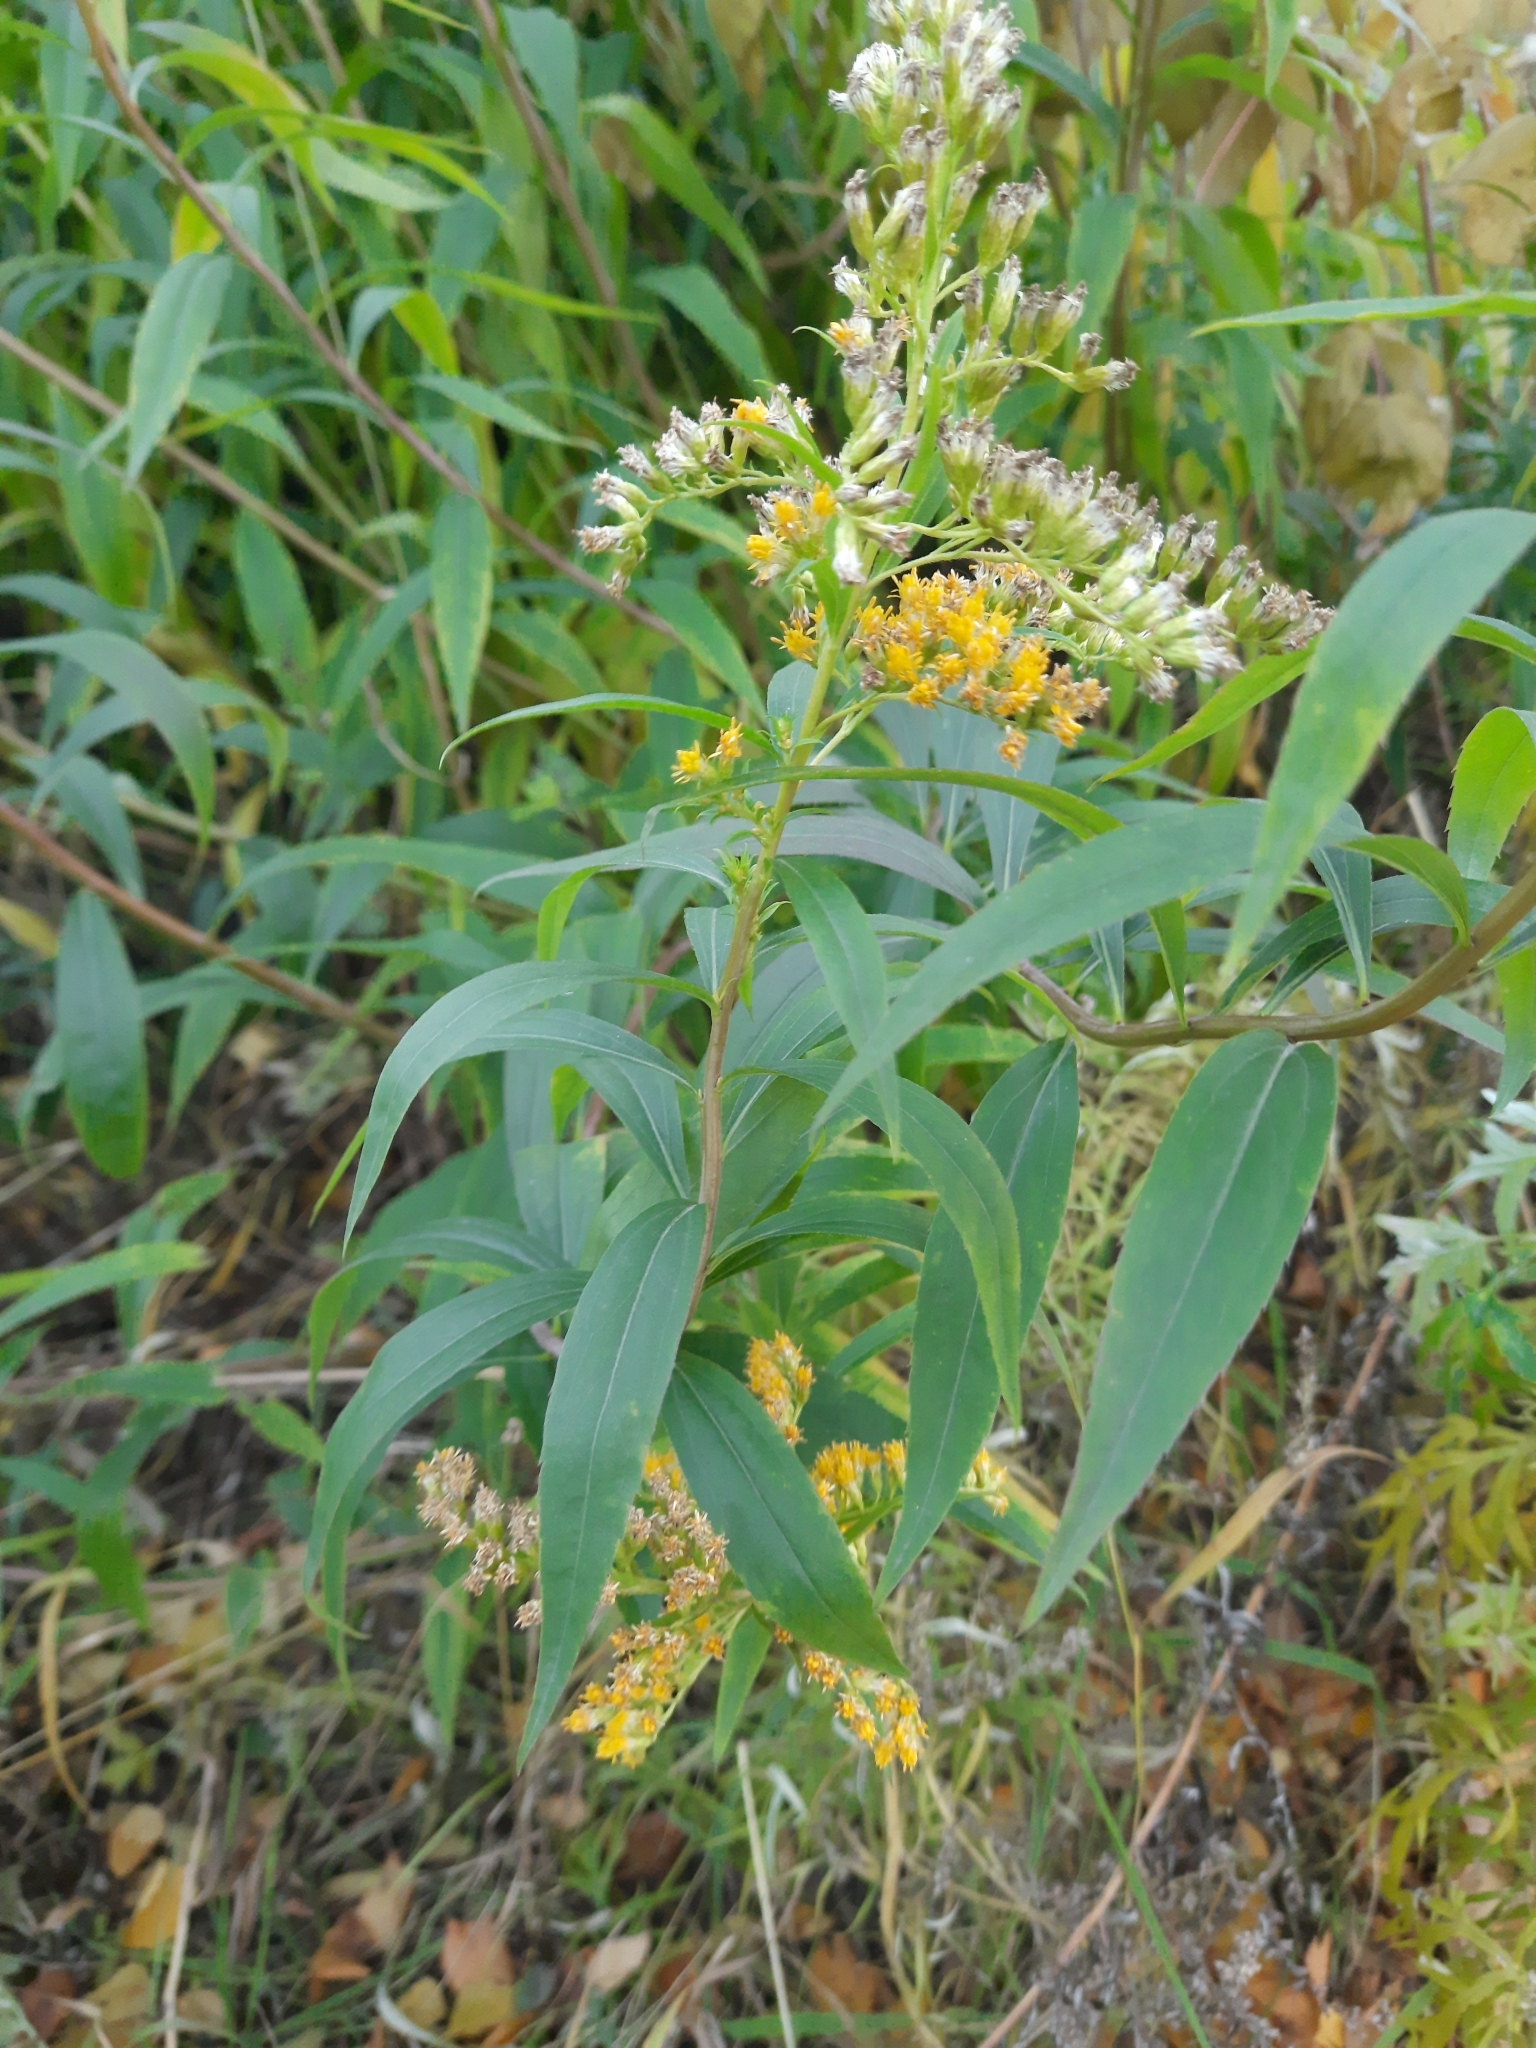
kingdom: Plantae
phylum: Tracheophyta
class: Magnoliopsida
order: Asterales
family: Asteraceae
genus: Solidago
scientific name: Solidago gigantea
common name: Giant goldenrod
